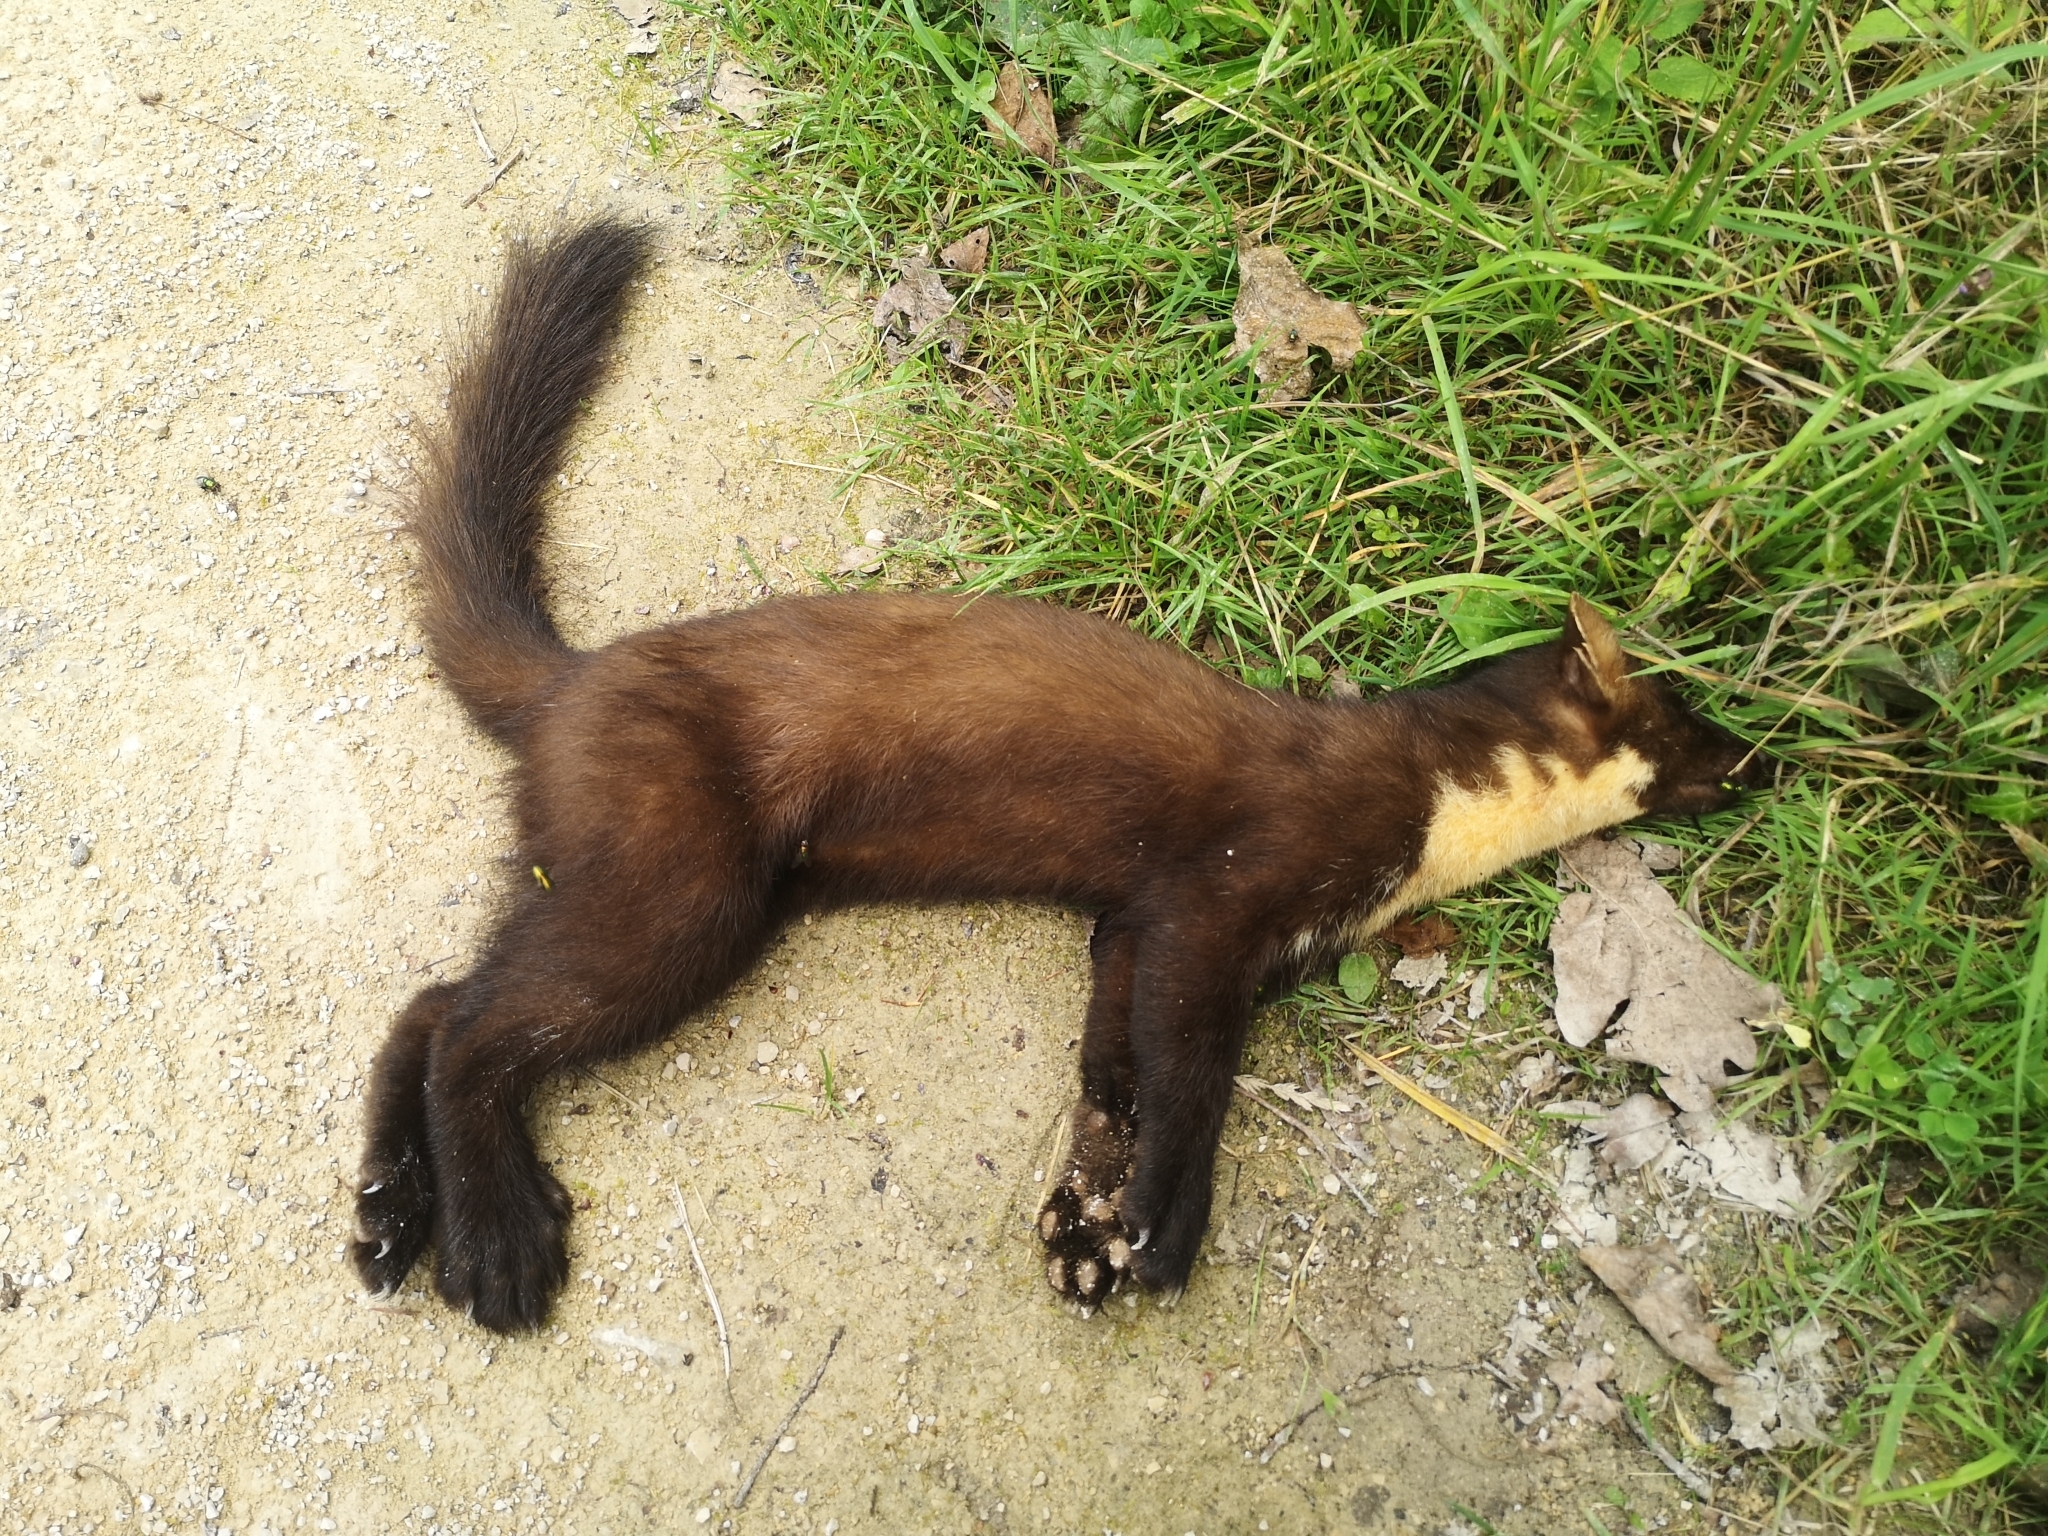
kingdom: Animalia
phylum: Chordata
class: Mammalia
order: Carnivora
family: Mustelidae
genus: Martes
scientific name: Martes martes
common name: European pine marten
